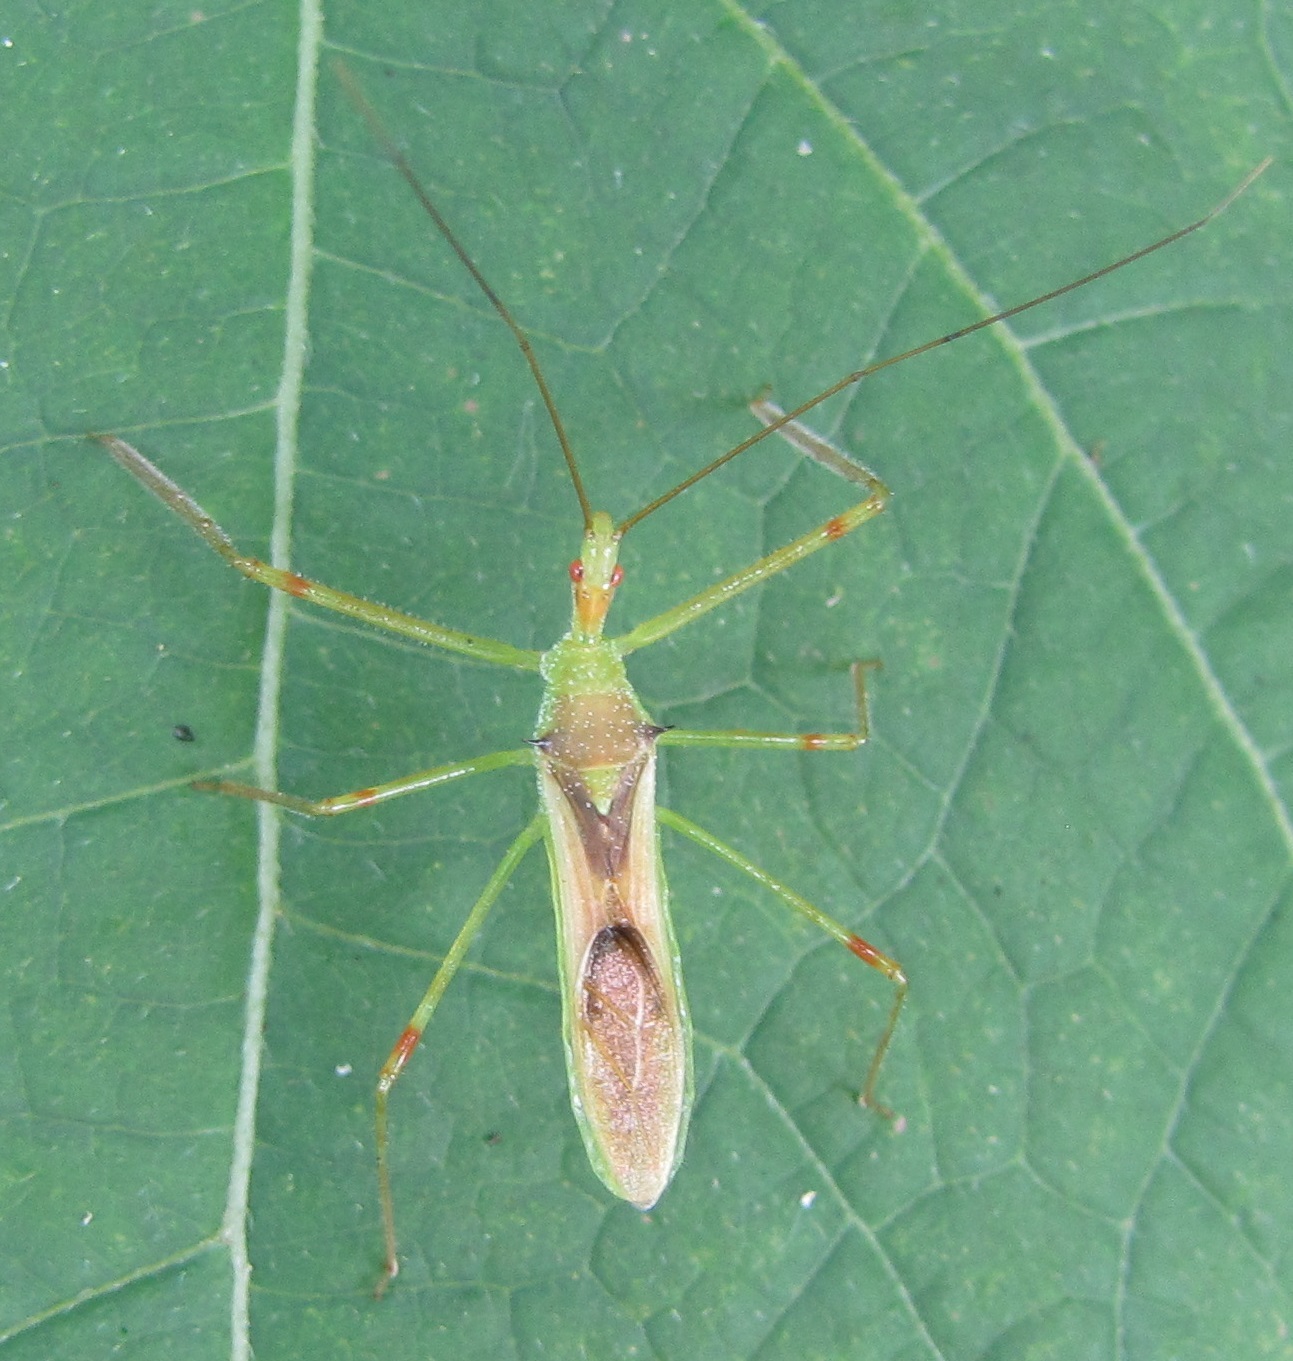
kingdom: Animalia
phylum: Arthropoda
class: Insecta
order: Hemiptera
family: Reduviidae
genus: Zelus
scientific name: Zelus luridus
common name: Pale green assassin bug
